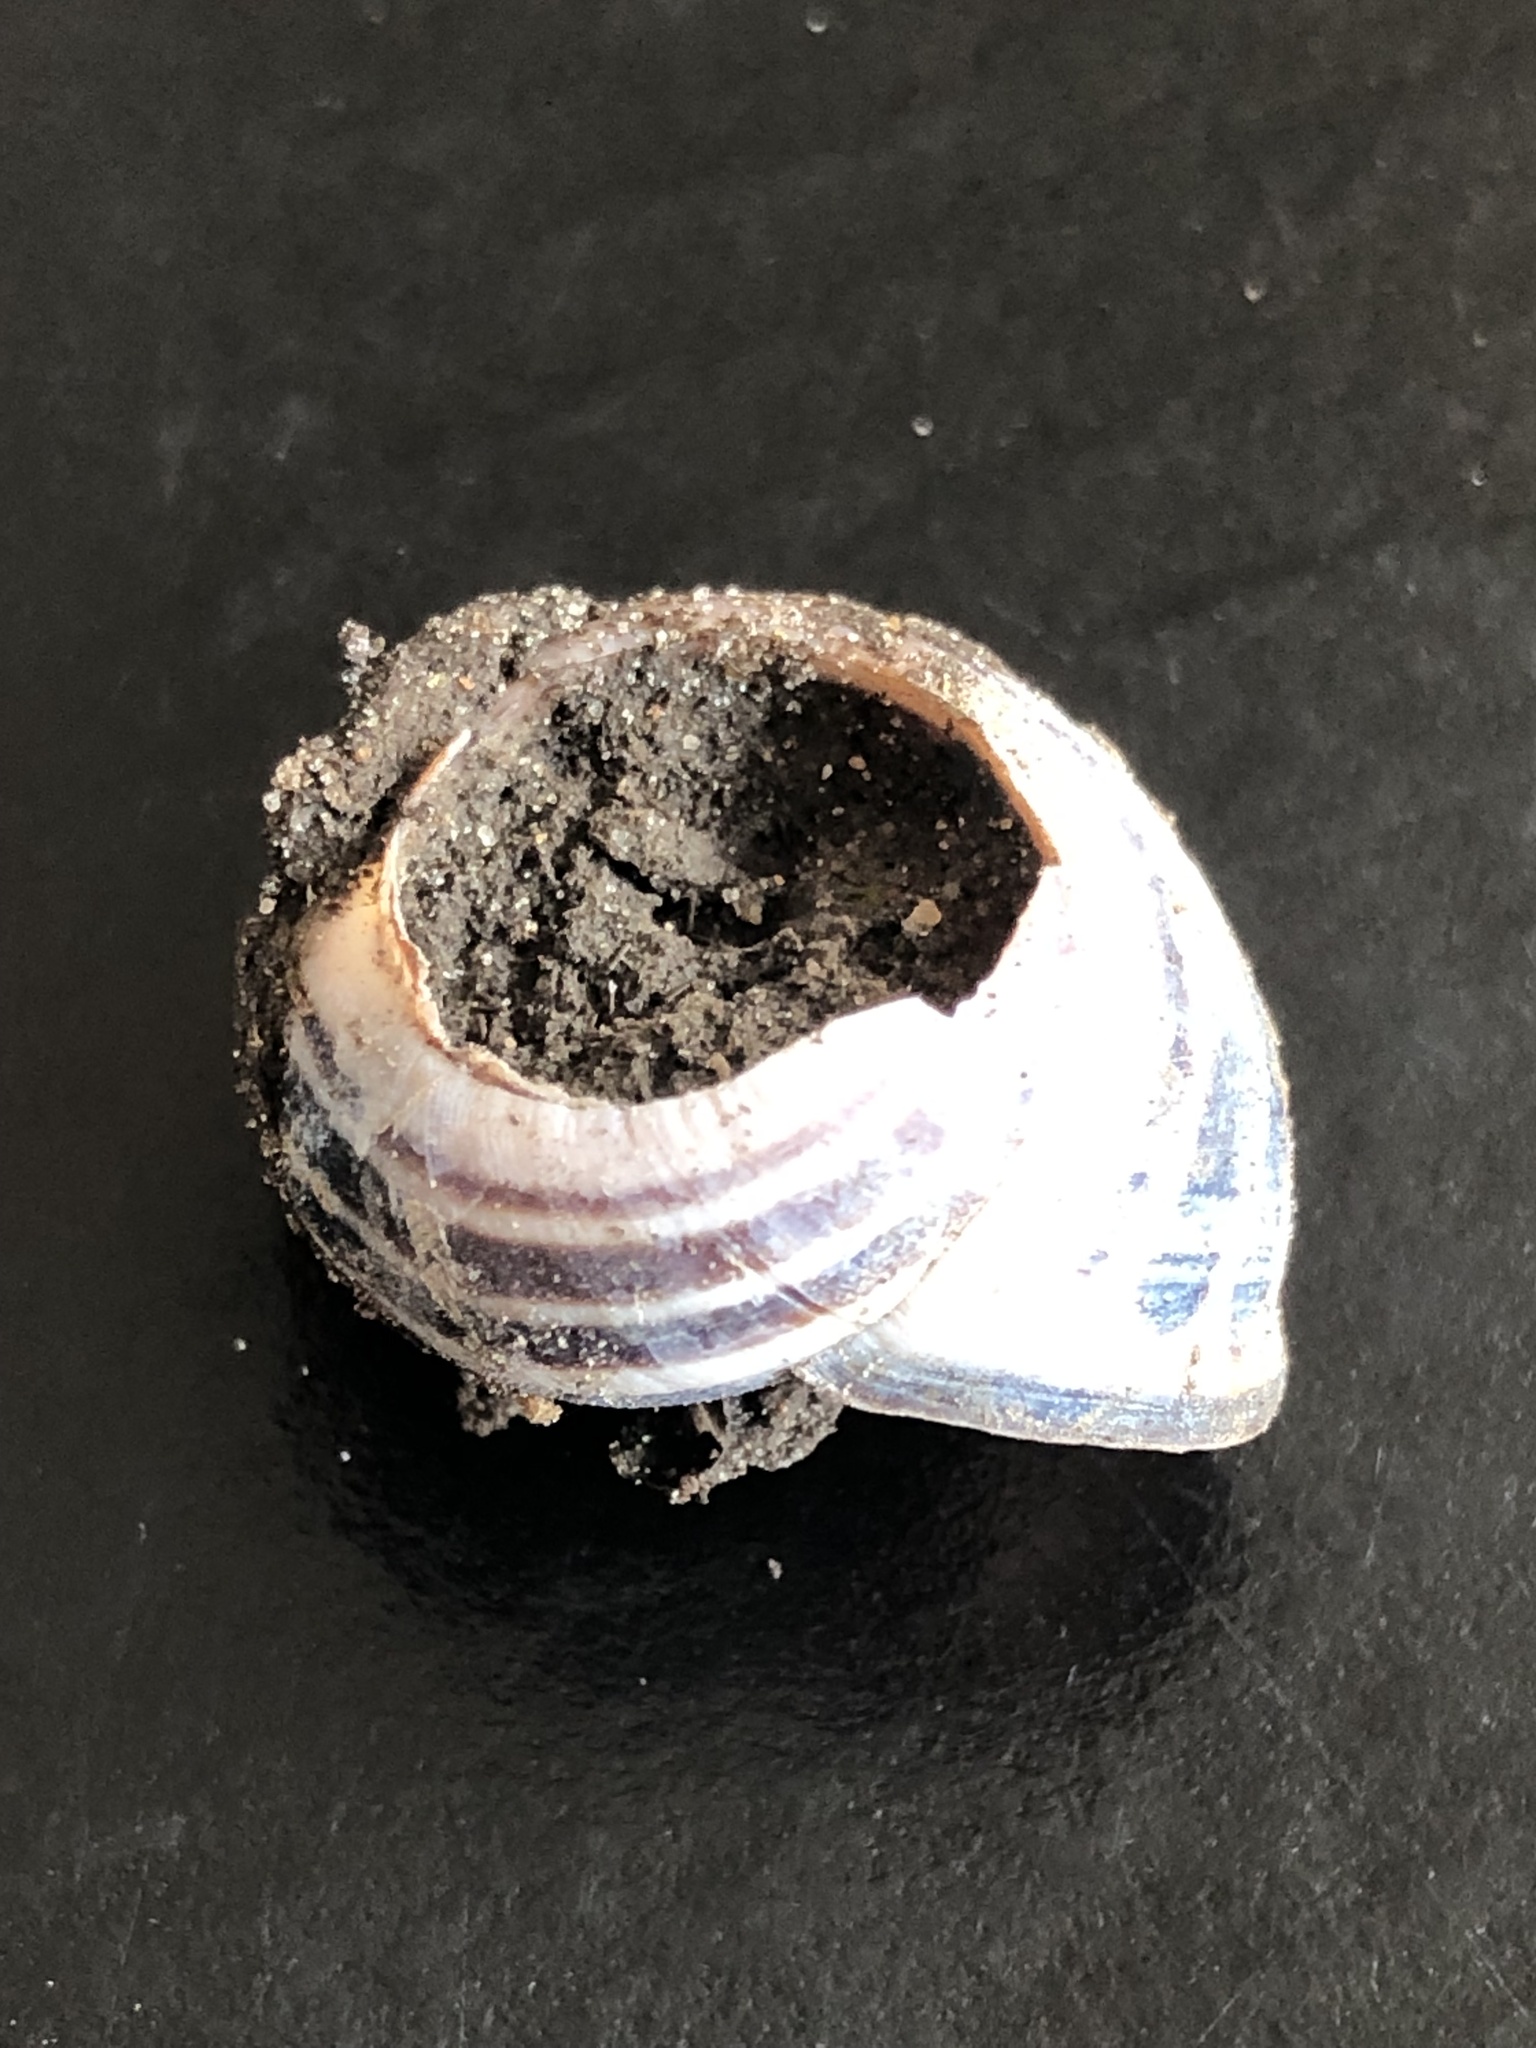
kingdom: Animalia
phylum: Mollusca
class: Gastropoda
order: Stylommatophora
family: Helicidae
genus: Cepaea
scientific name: Cepaea nemoralis
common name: Grovesnail
